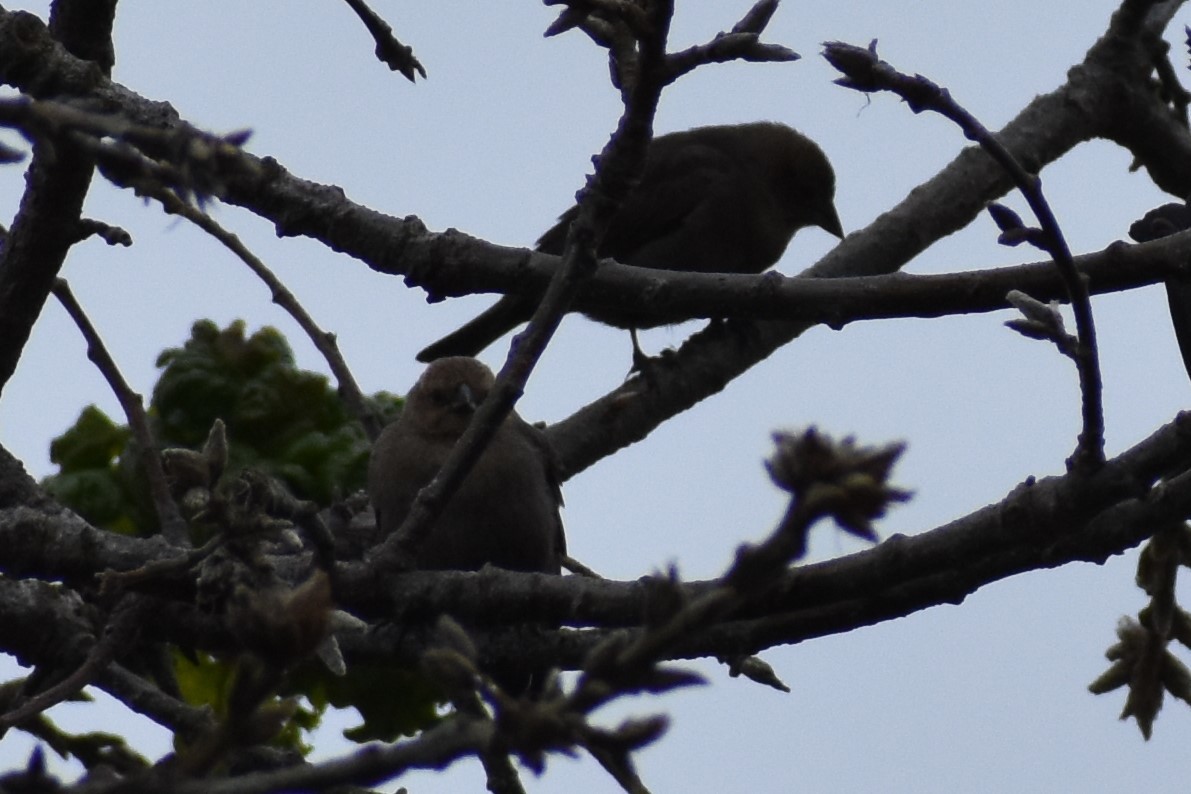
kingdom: Animalia
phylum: Chordata
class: Aves
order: Passeriformes
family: Icteridae
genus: Molothrus
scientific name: Molothrus ater
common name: Brown-headed cowbird
